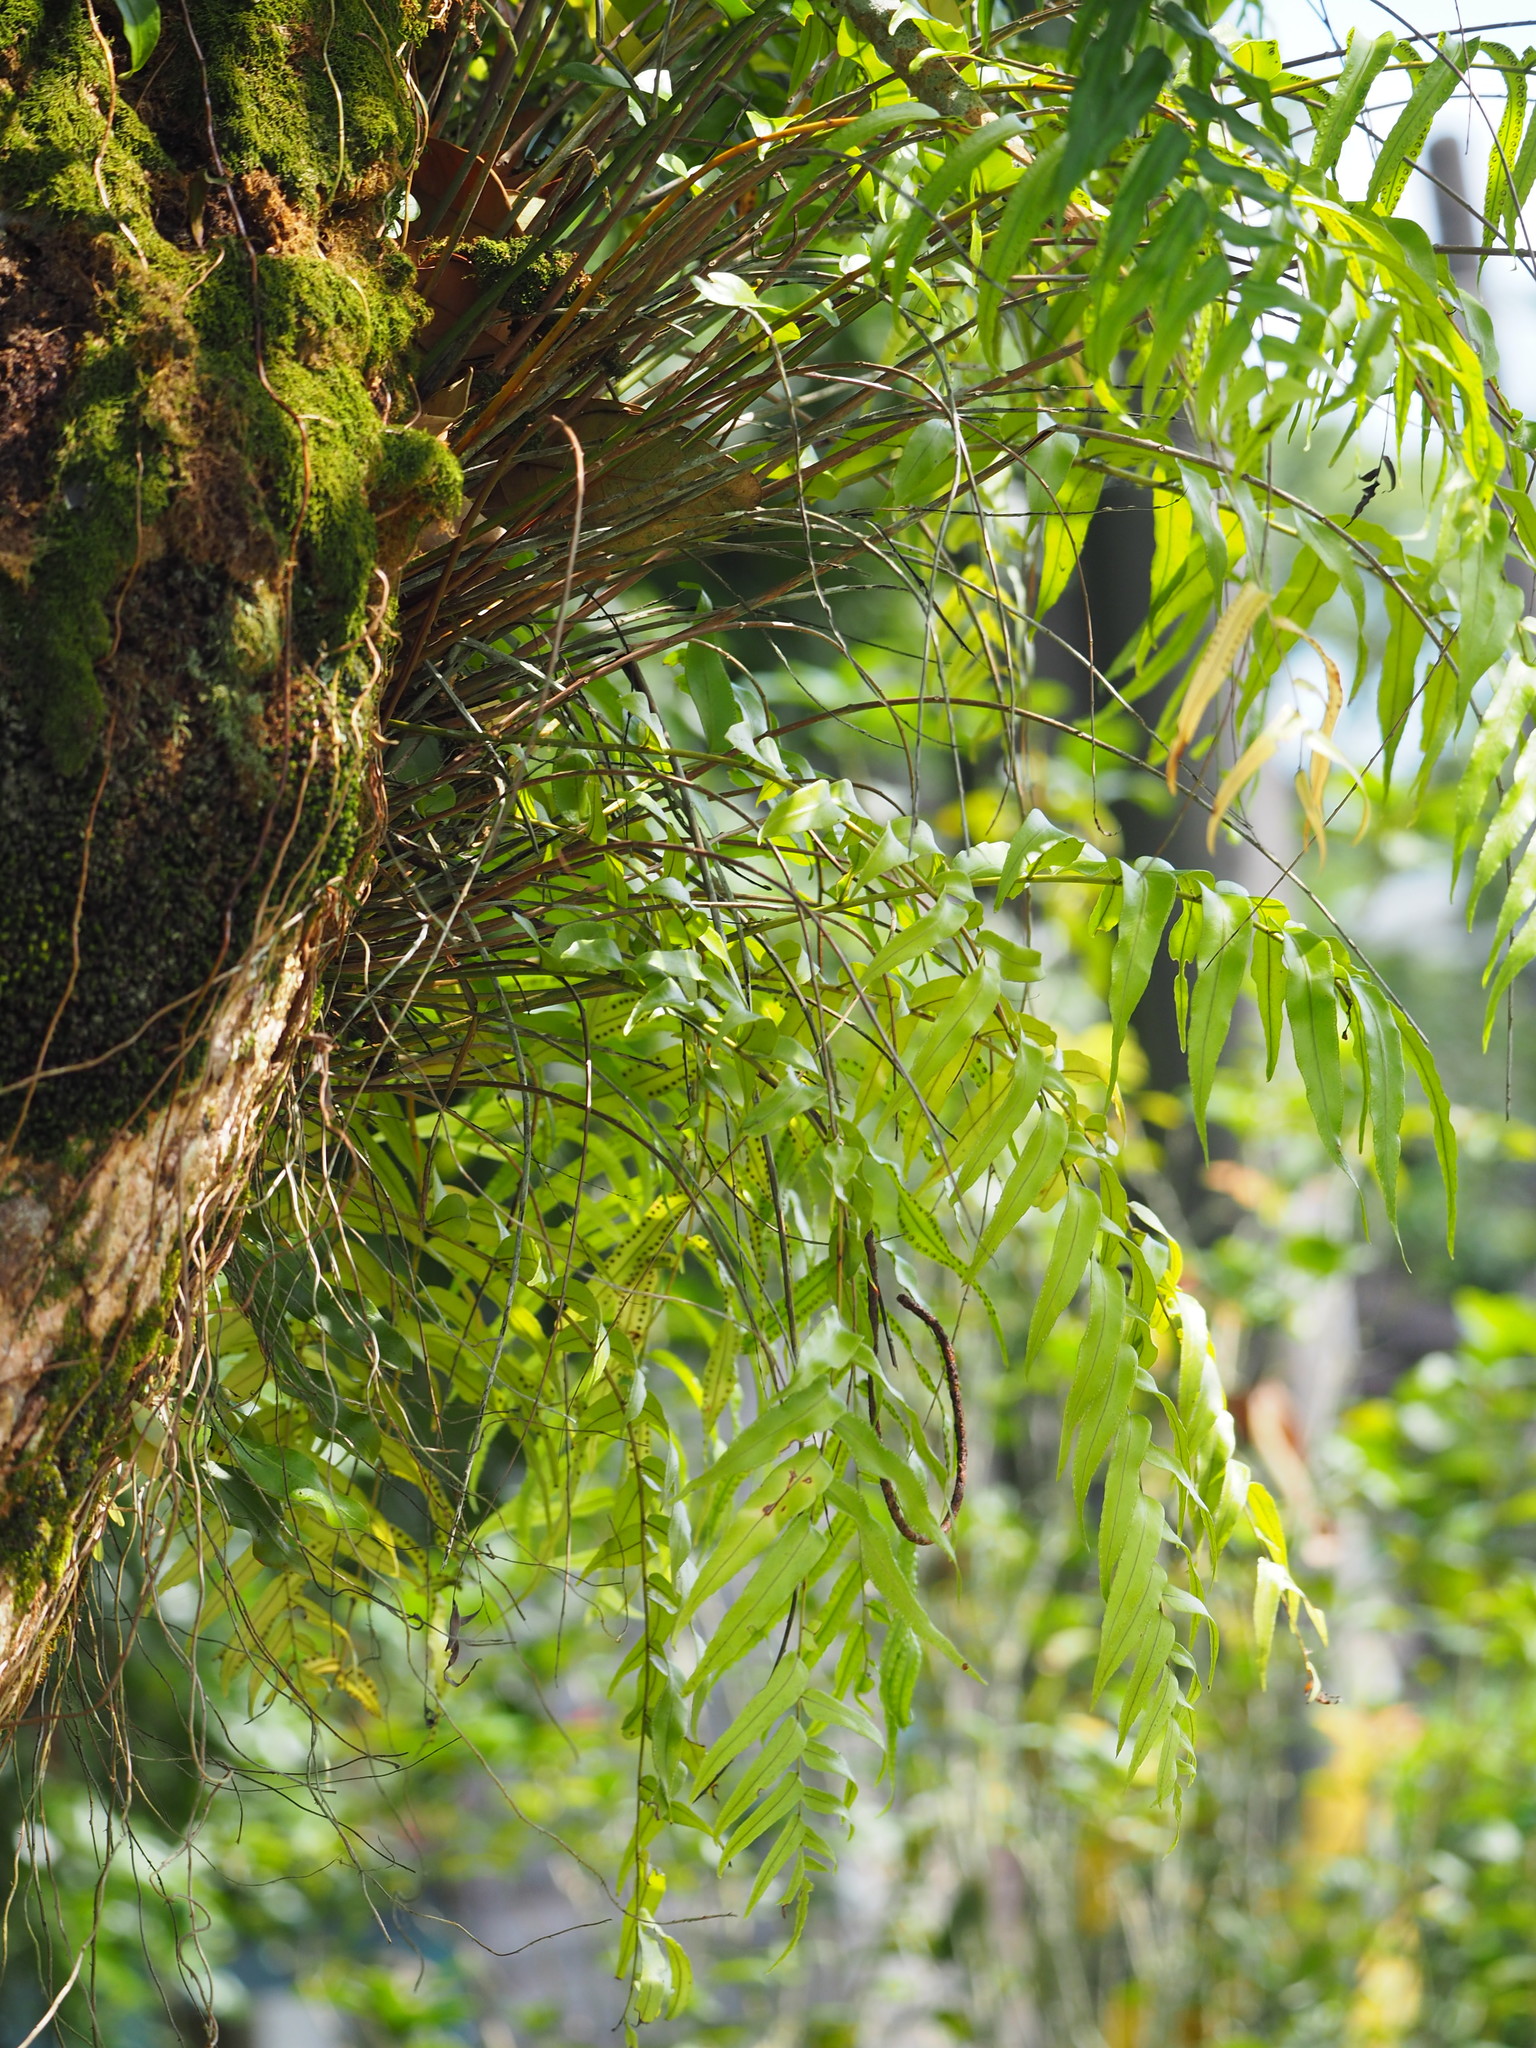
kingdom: Plantae
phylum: Tracheophyta
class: Polypodiopsida
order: Polypodiales
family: Nephrolepidaceae
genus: Nephrolepis
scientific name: Nephrolepis biserrata
